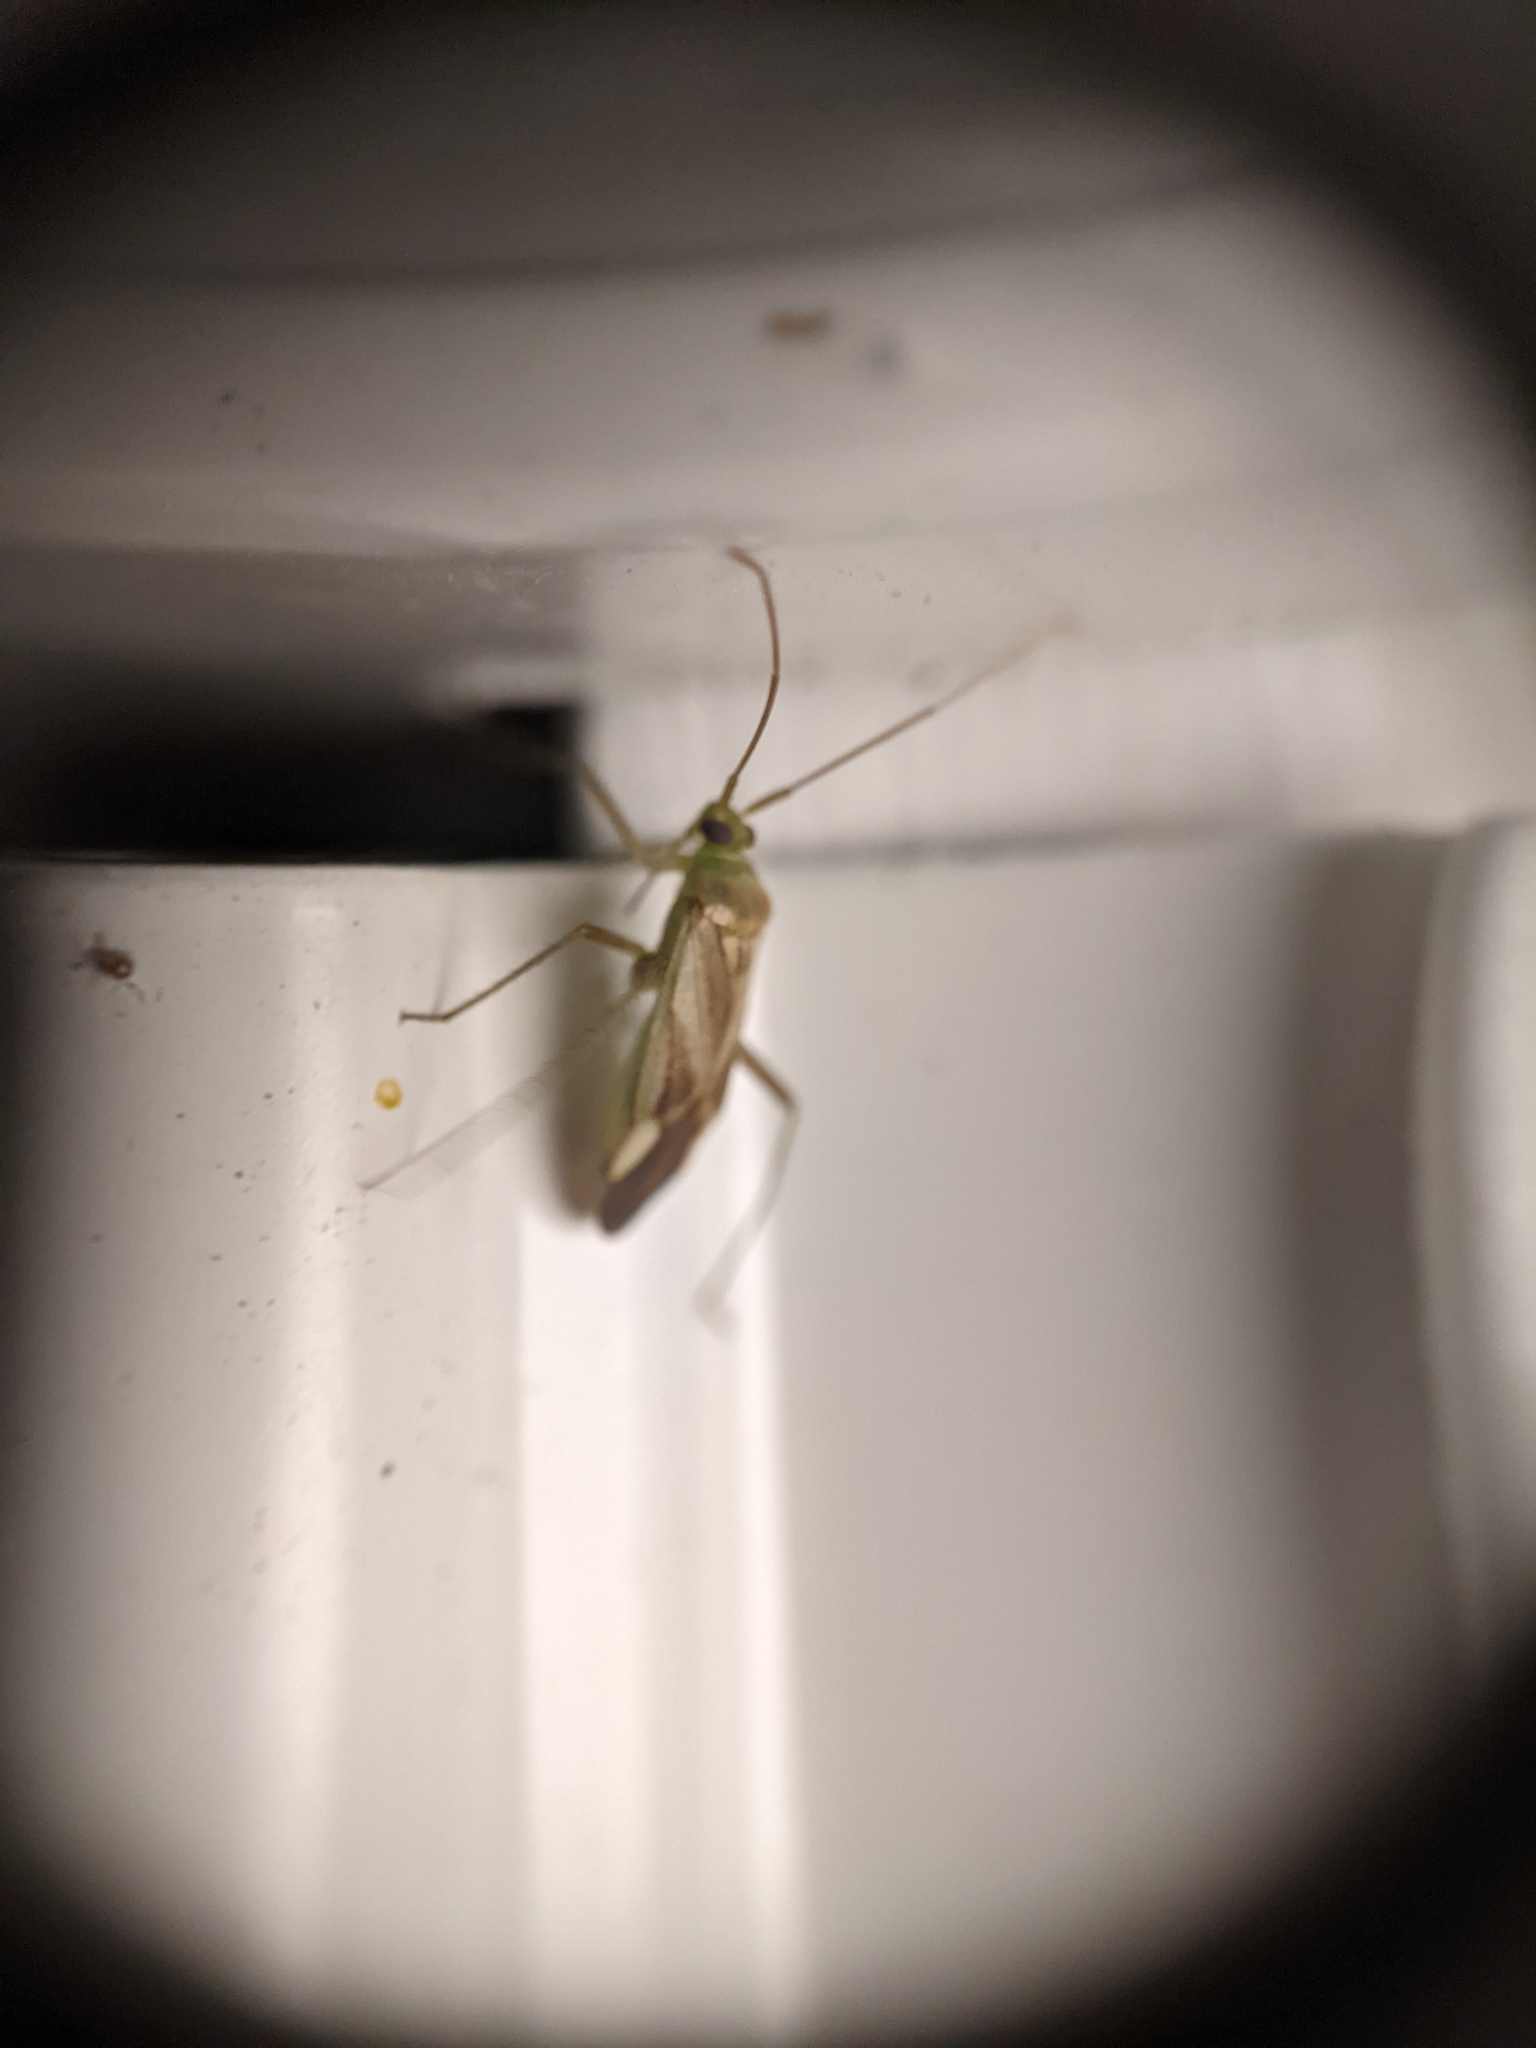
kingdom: Animalia
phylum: Arthropoda
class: Insecta
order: Hemiptera
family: Miridae
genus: Adelphocoris
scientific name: Adelphocoris lineolatus
